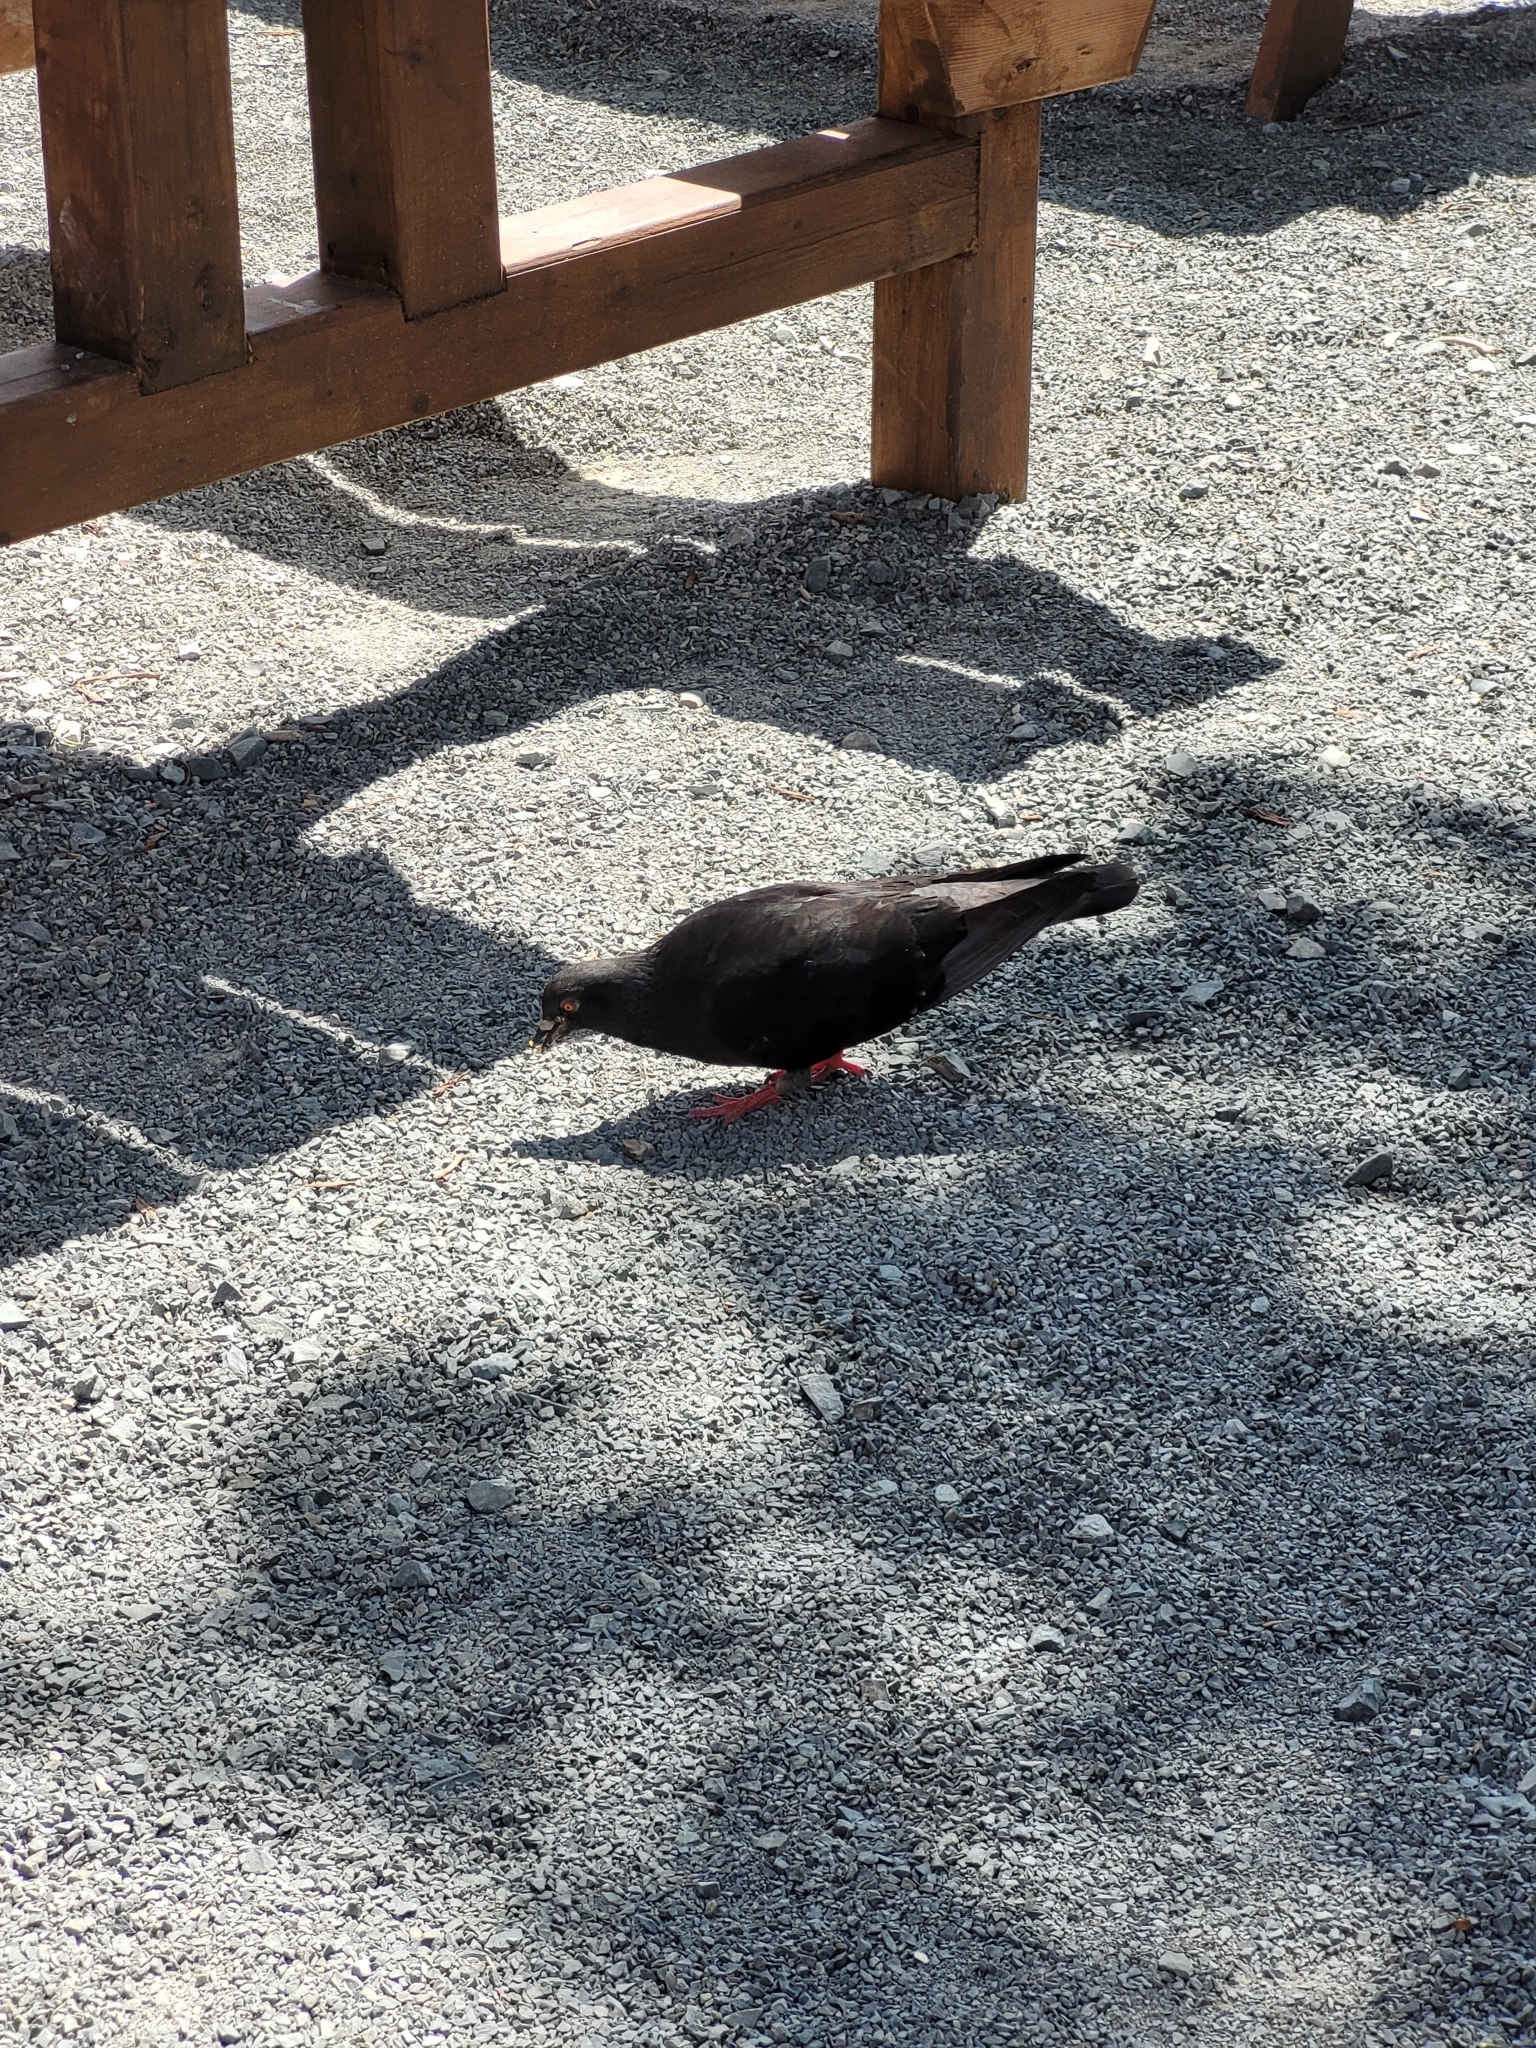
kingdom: Animalia
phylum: Chordata
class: Aves
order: Columbiformes
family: Columbidae
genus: Columba
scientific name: Columba livia
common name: Rock pigeon
